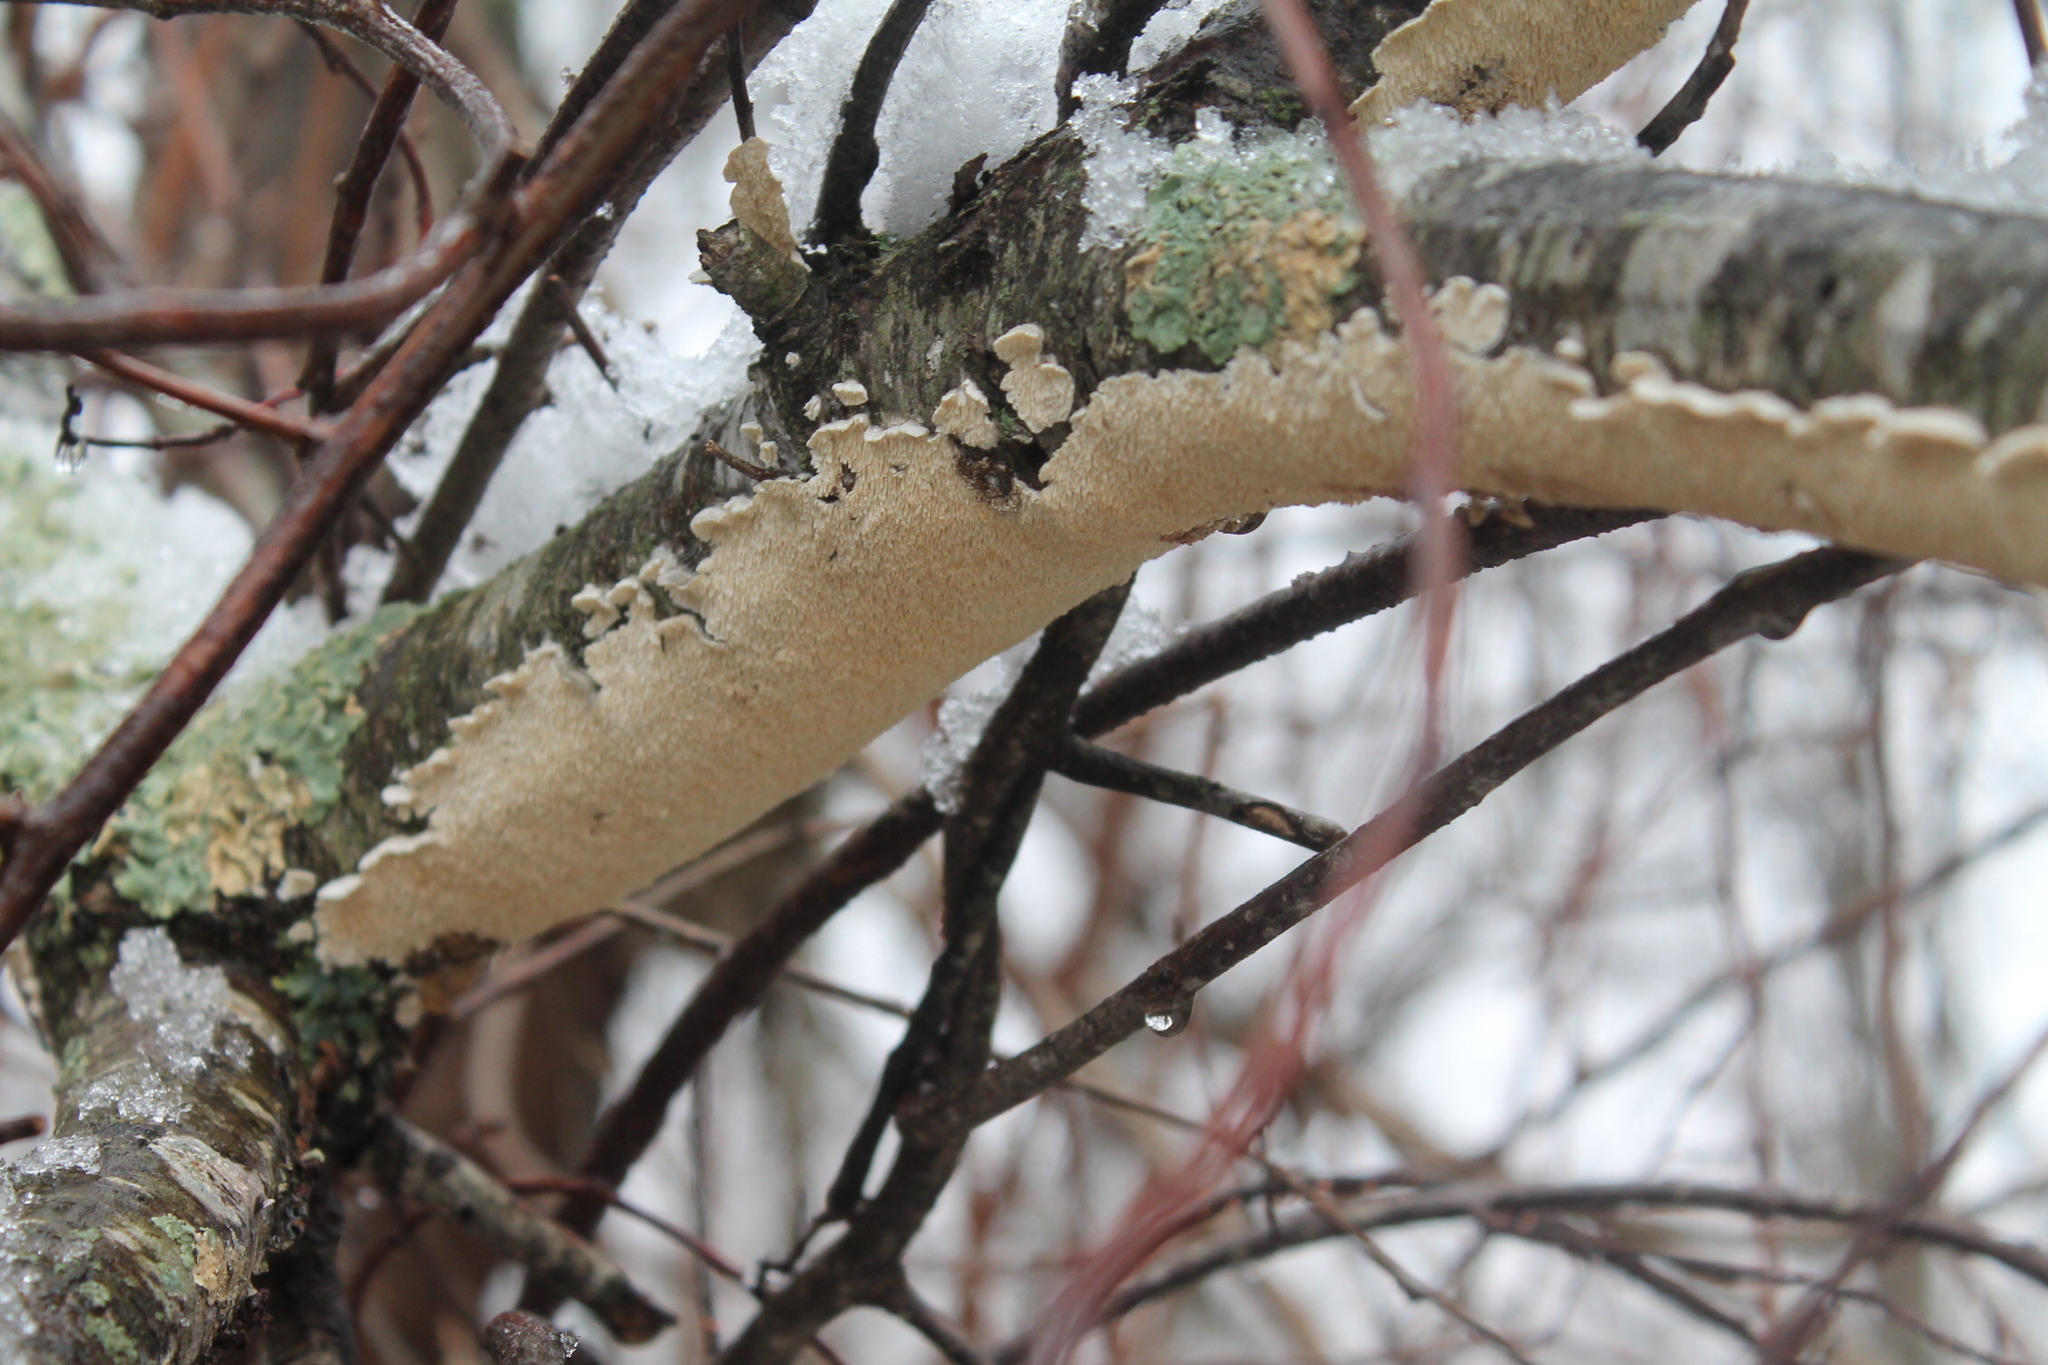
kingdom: Fungi
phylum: Basidiomycota
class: Agaricomycetes
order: Polyporales
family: Irpicaceae
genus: Irpex
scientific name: Irpex lacteus
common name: Milk-white toothed polypore
